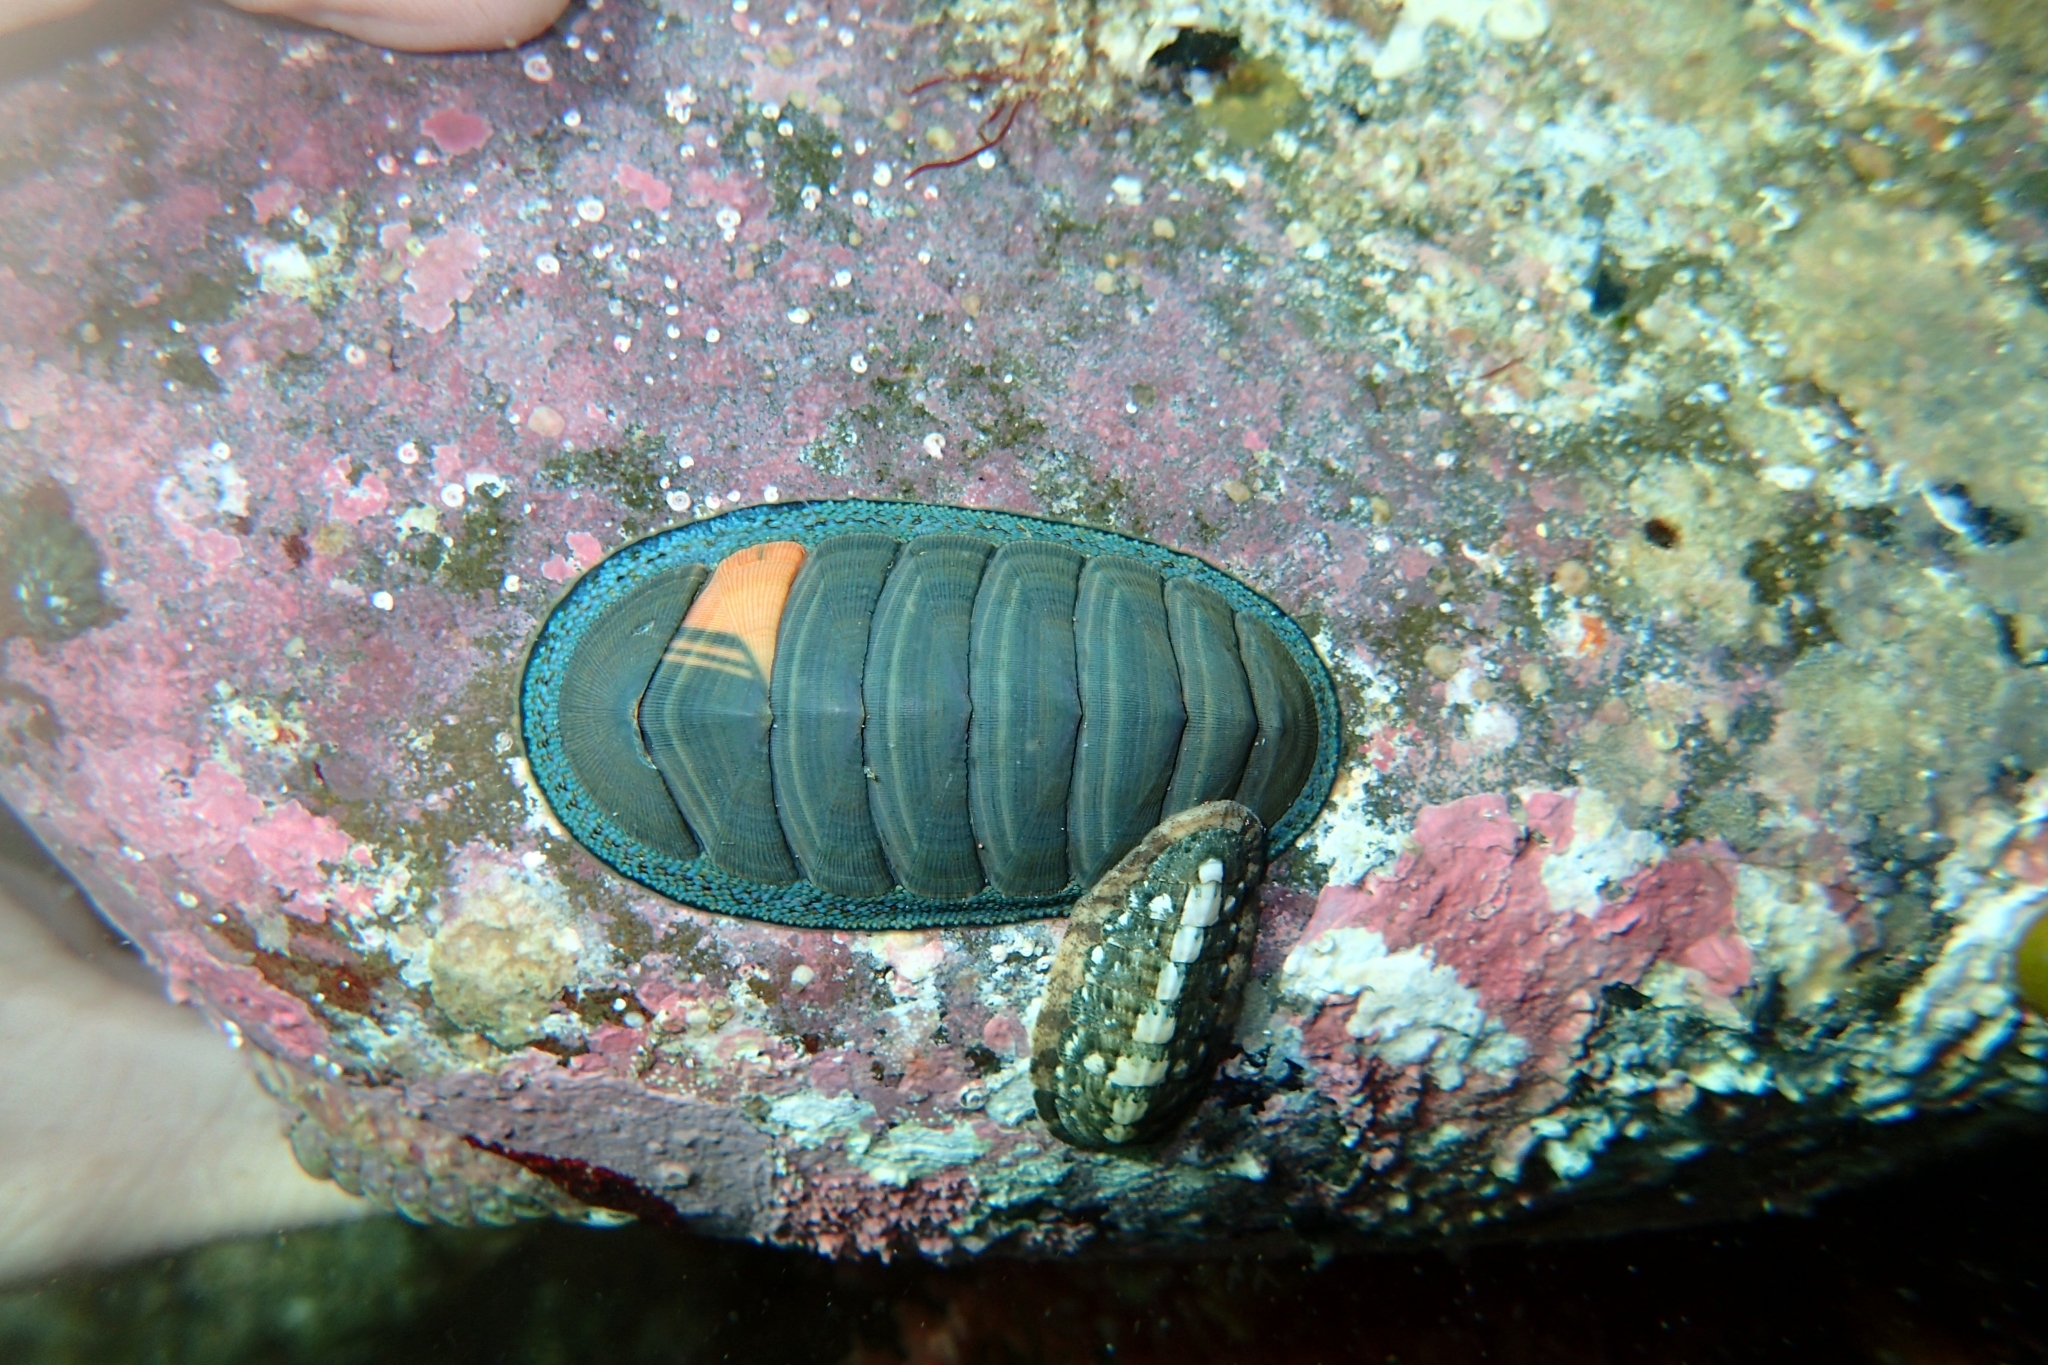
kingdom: Animalia
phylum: Mollusca
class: Polyplacophora
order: Chitonida
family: Chitonidae
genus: Chiton
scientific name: Chiton glaucus
